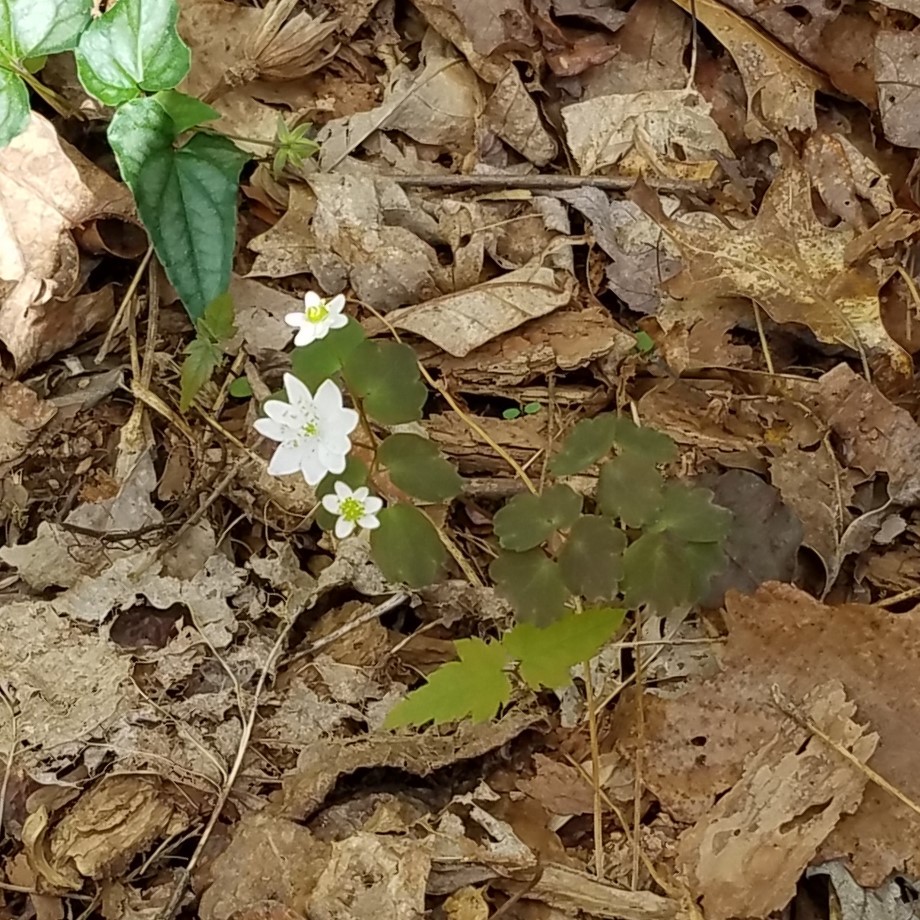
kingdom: Plantae
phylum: Tracheophyta
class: Magnoliopsida
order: Ranunculales
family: Ranunculaceae
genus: Thalictrum
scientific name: Thalictrum thalictroides
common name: Rue-anemone
